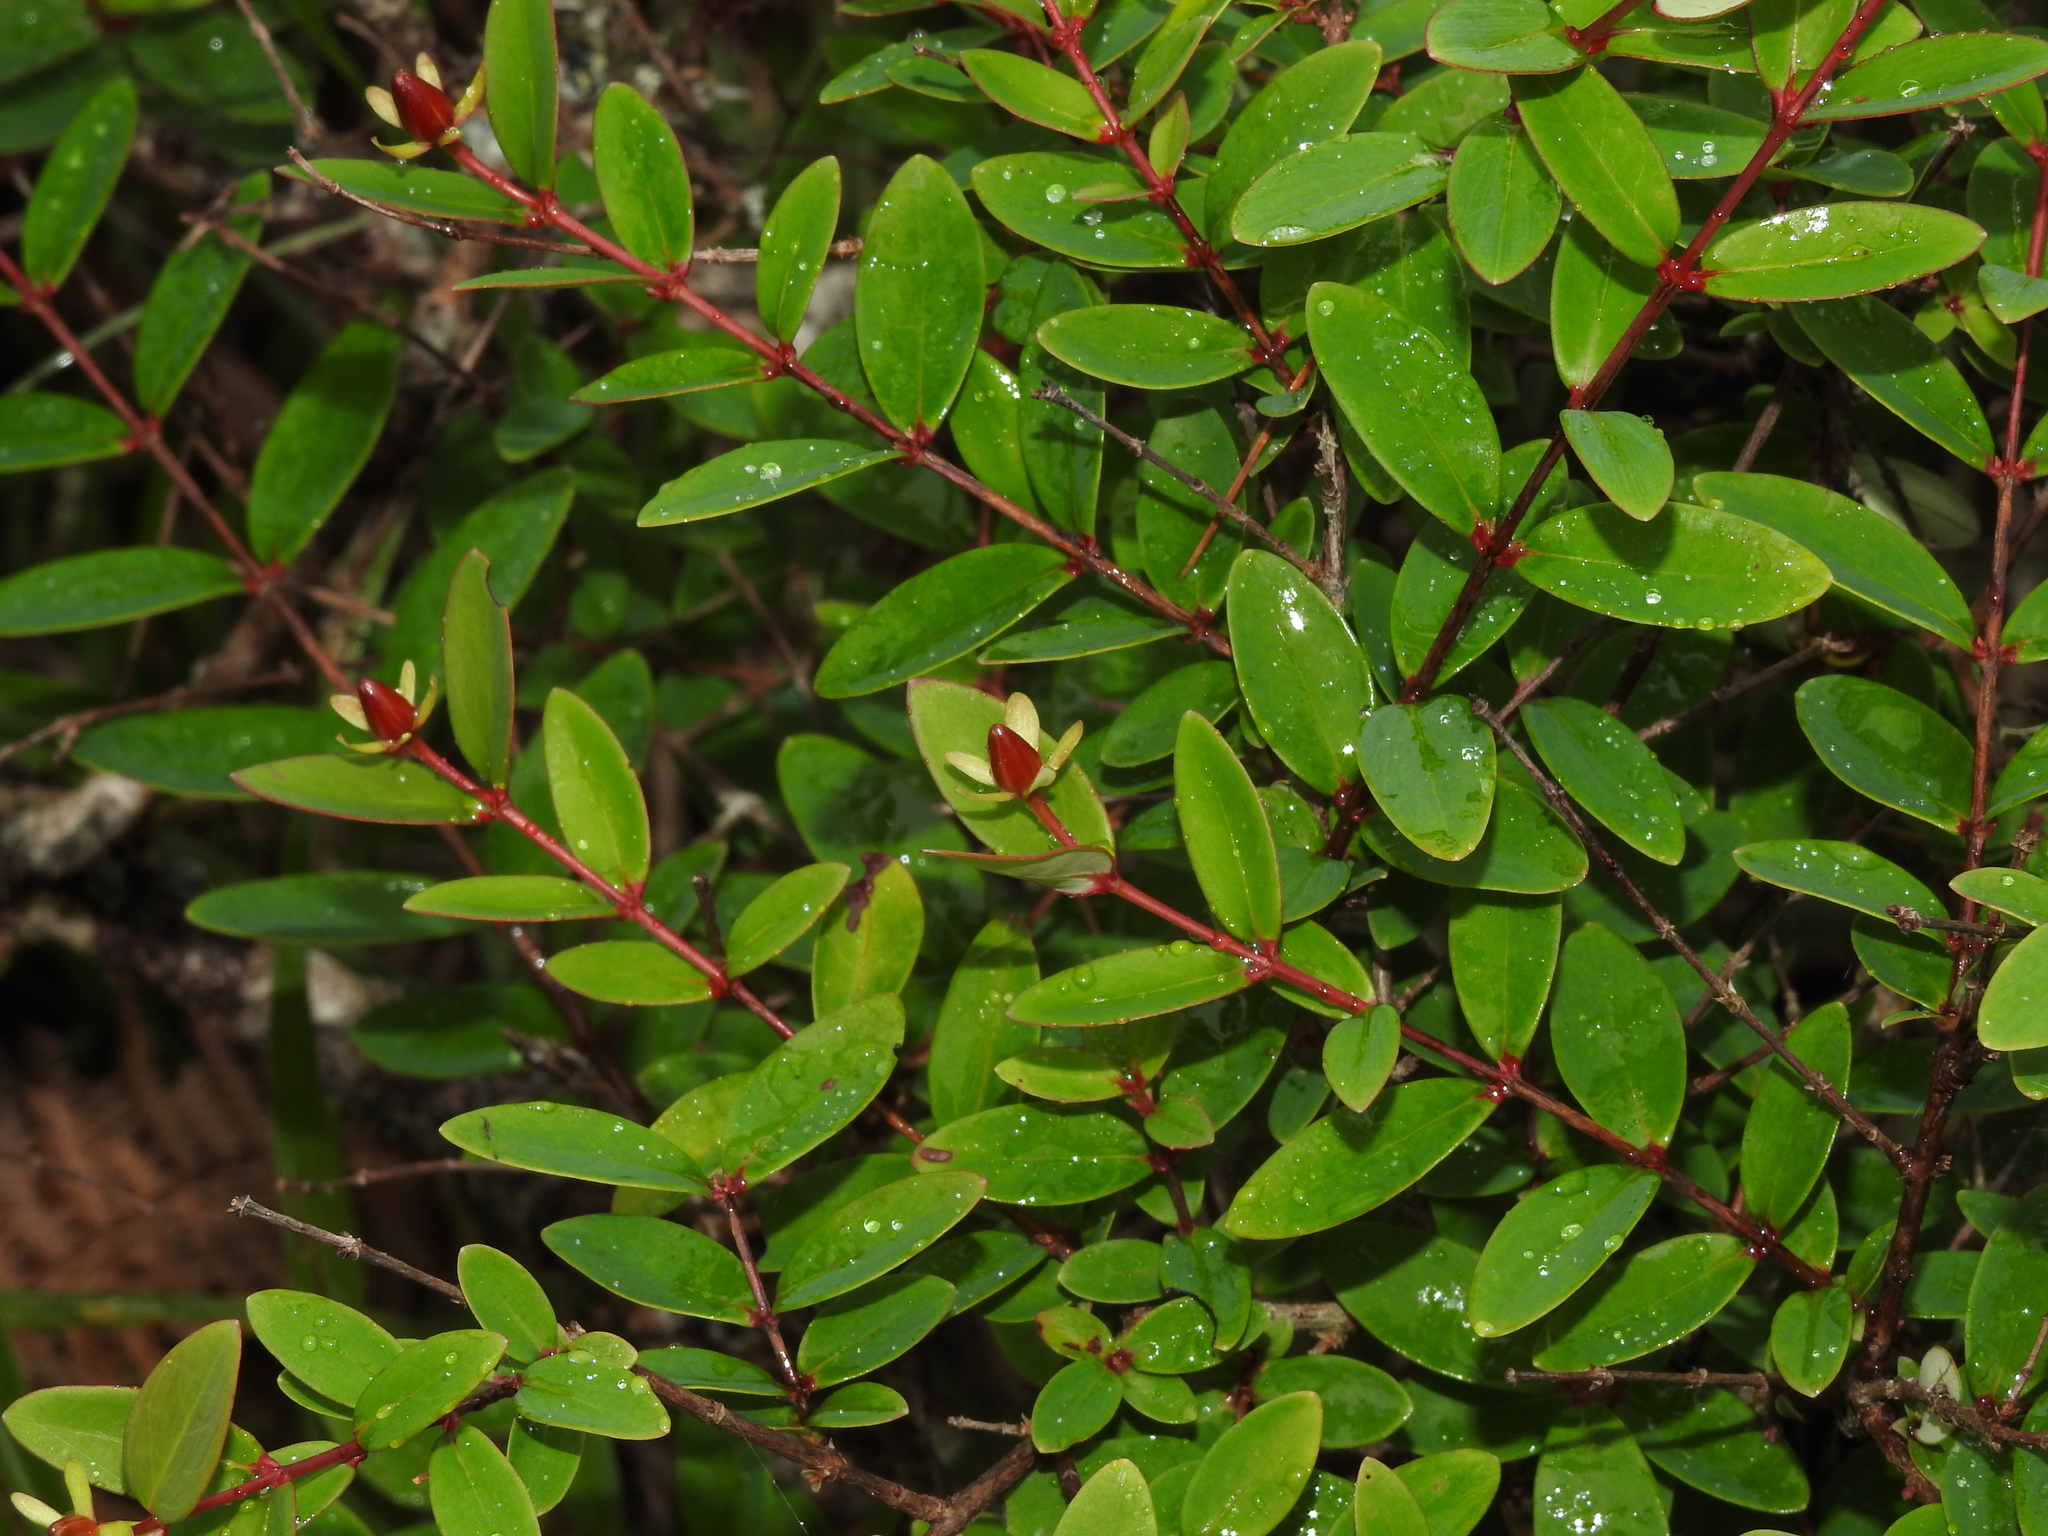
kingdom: Plantae
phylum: Tracheophyta
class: Magnoliopsida
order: Malpighiales
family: Hypericaceae
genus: Hypericum
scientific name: Hypericum nakamurae
